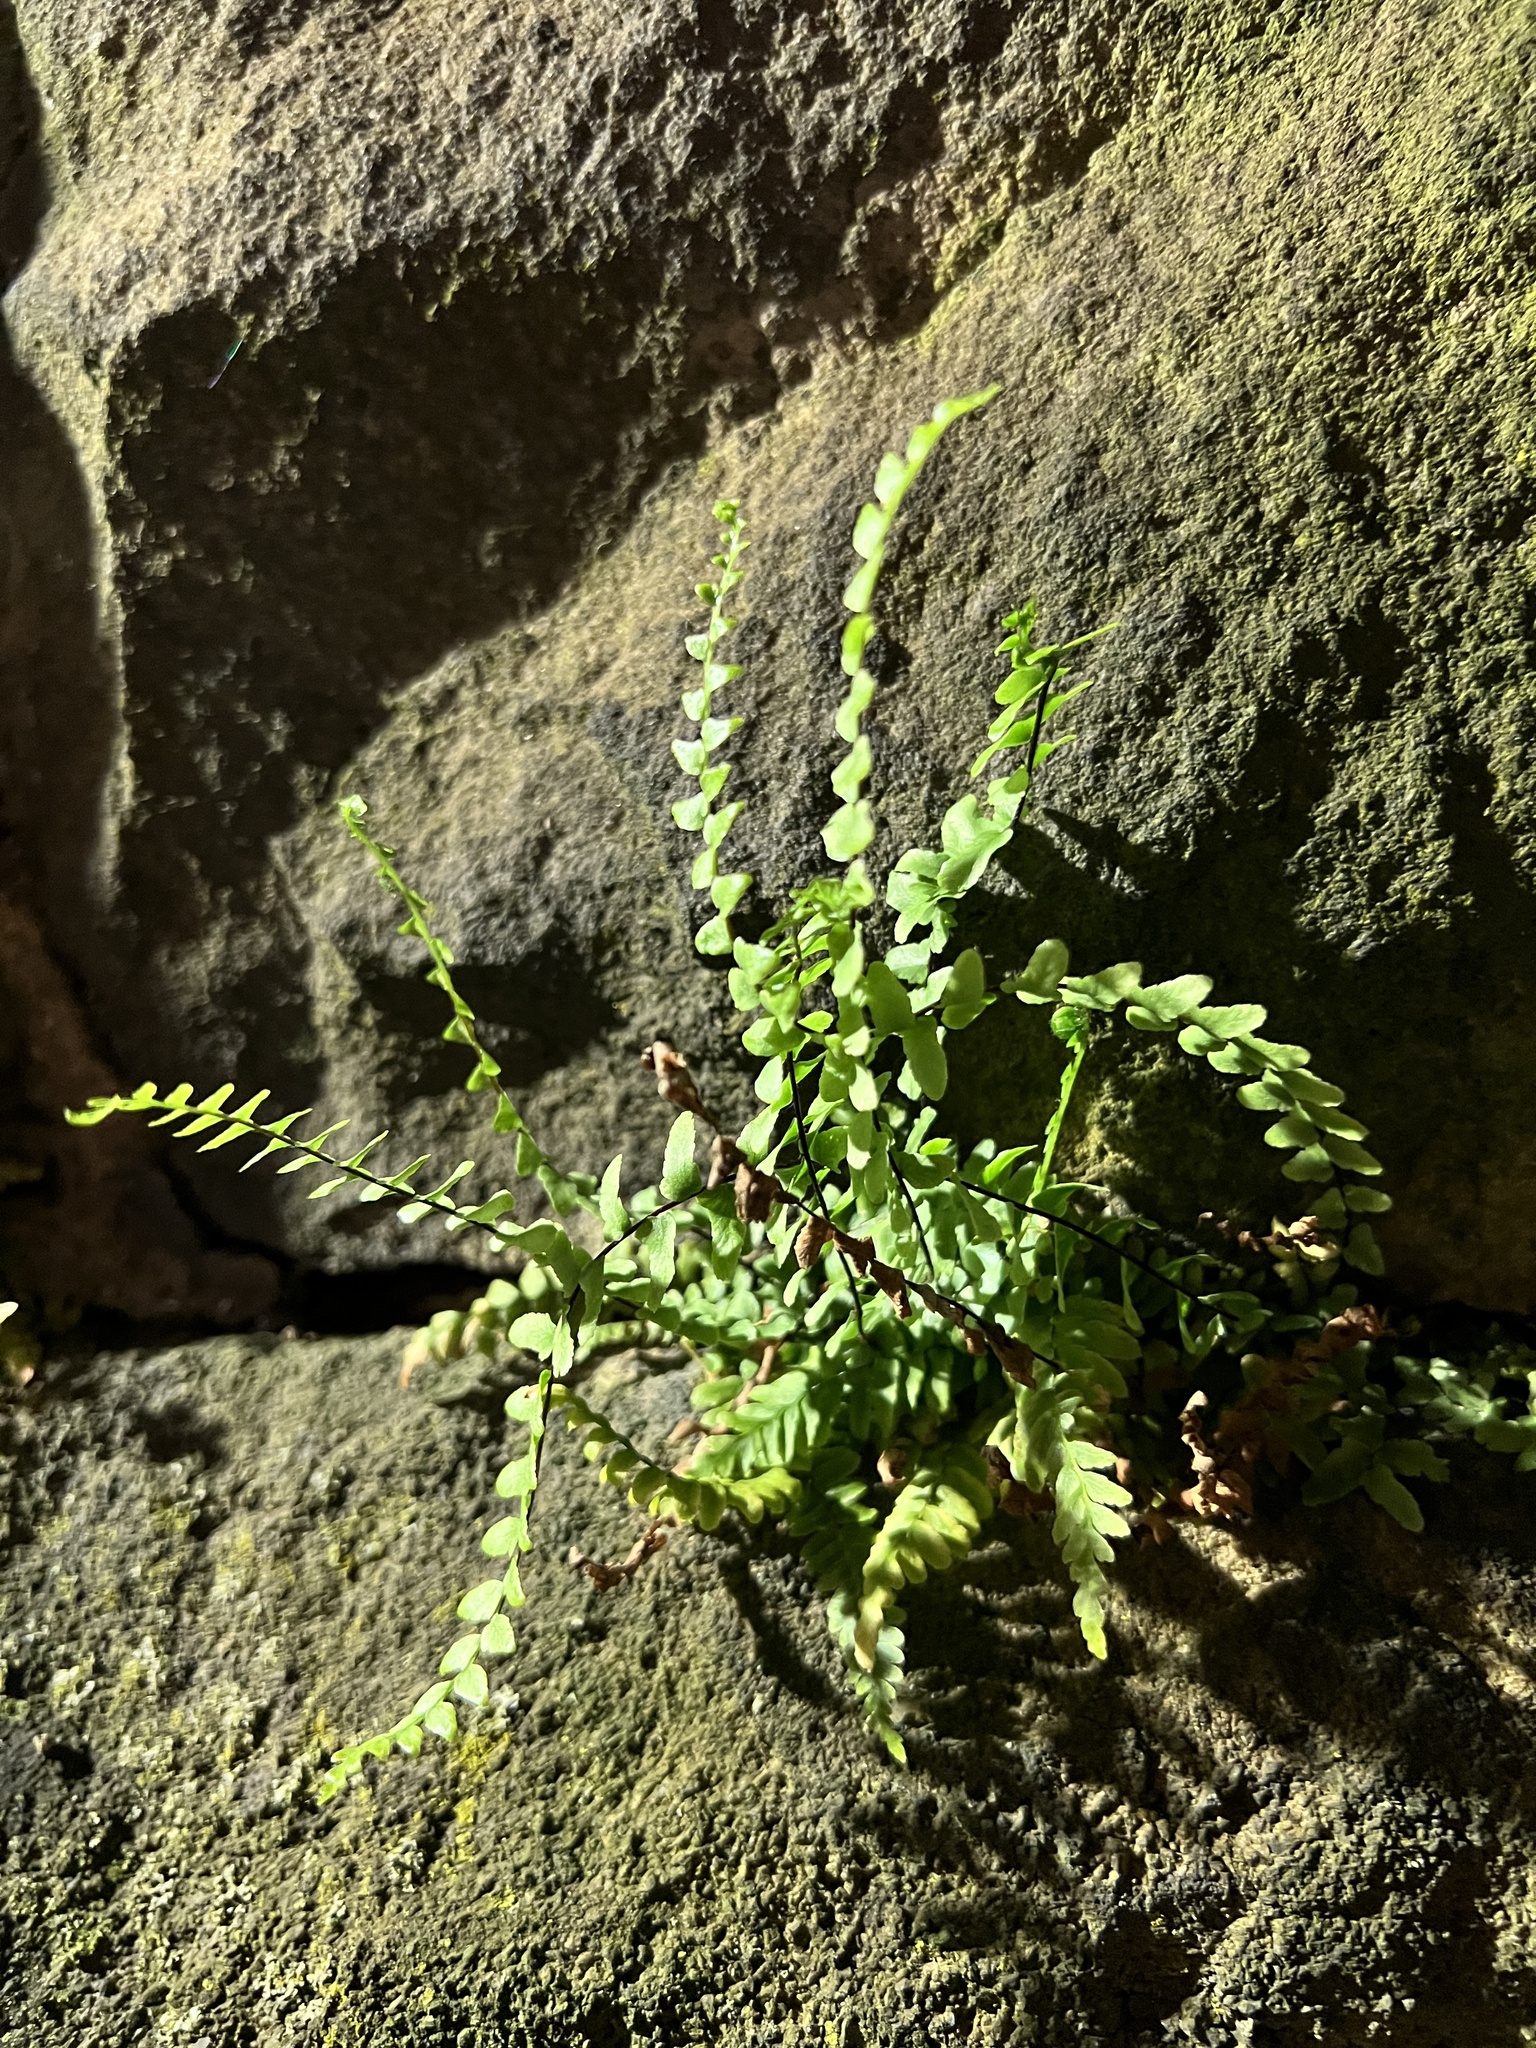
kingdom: Plantae
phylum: Tracheophyta
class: Polypodiopsida
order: Polypodiales
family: Aspleniaceae
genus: Asplenium
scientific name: Asplenium platyneuron
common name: Ebony spleenwort
